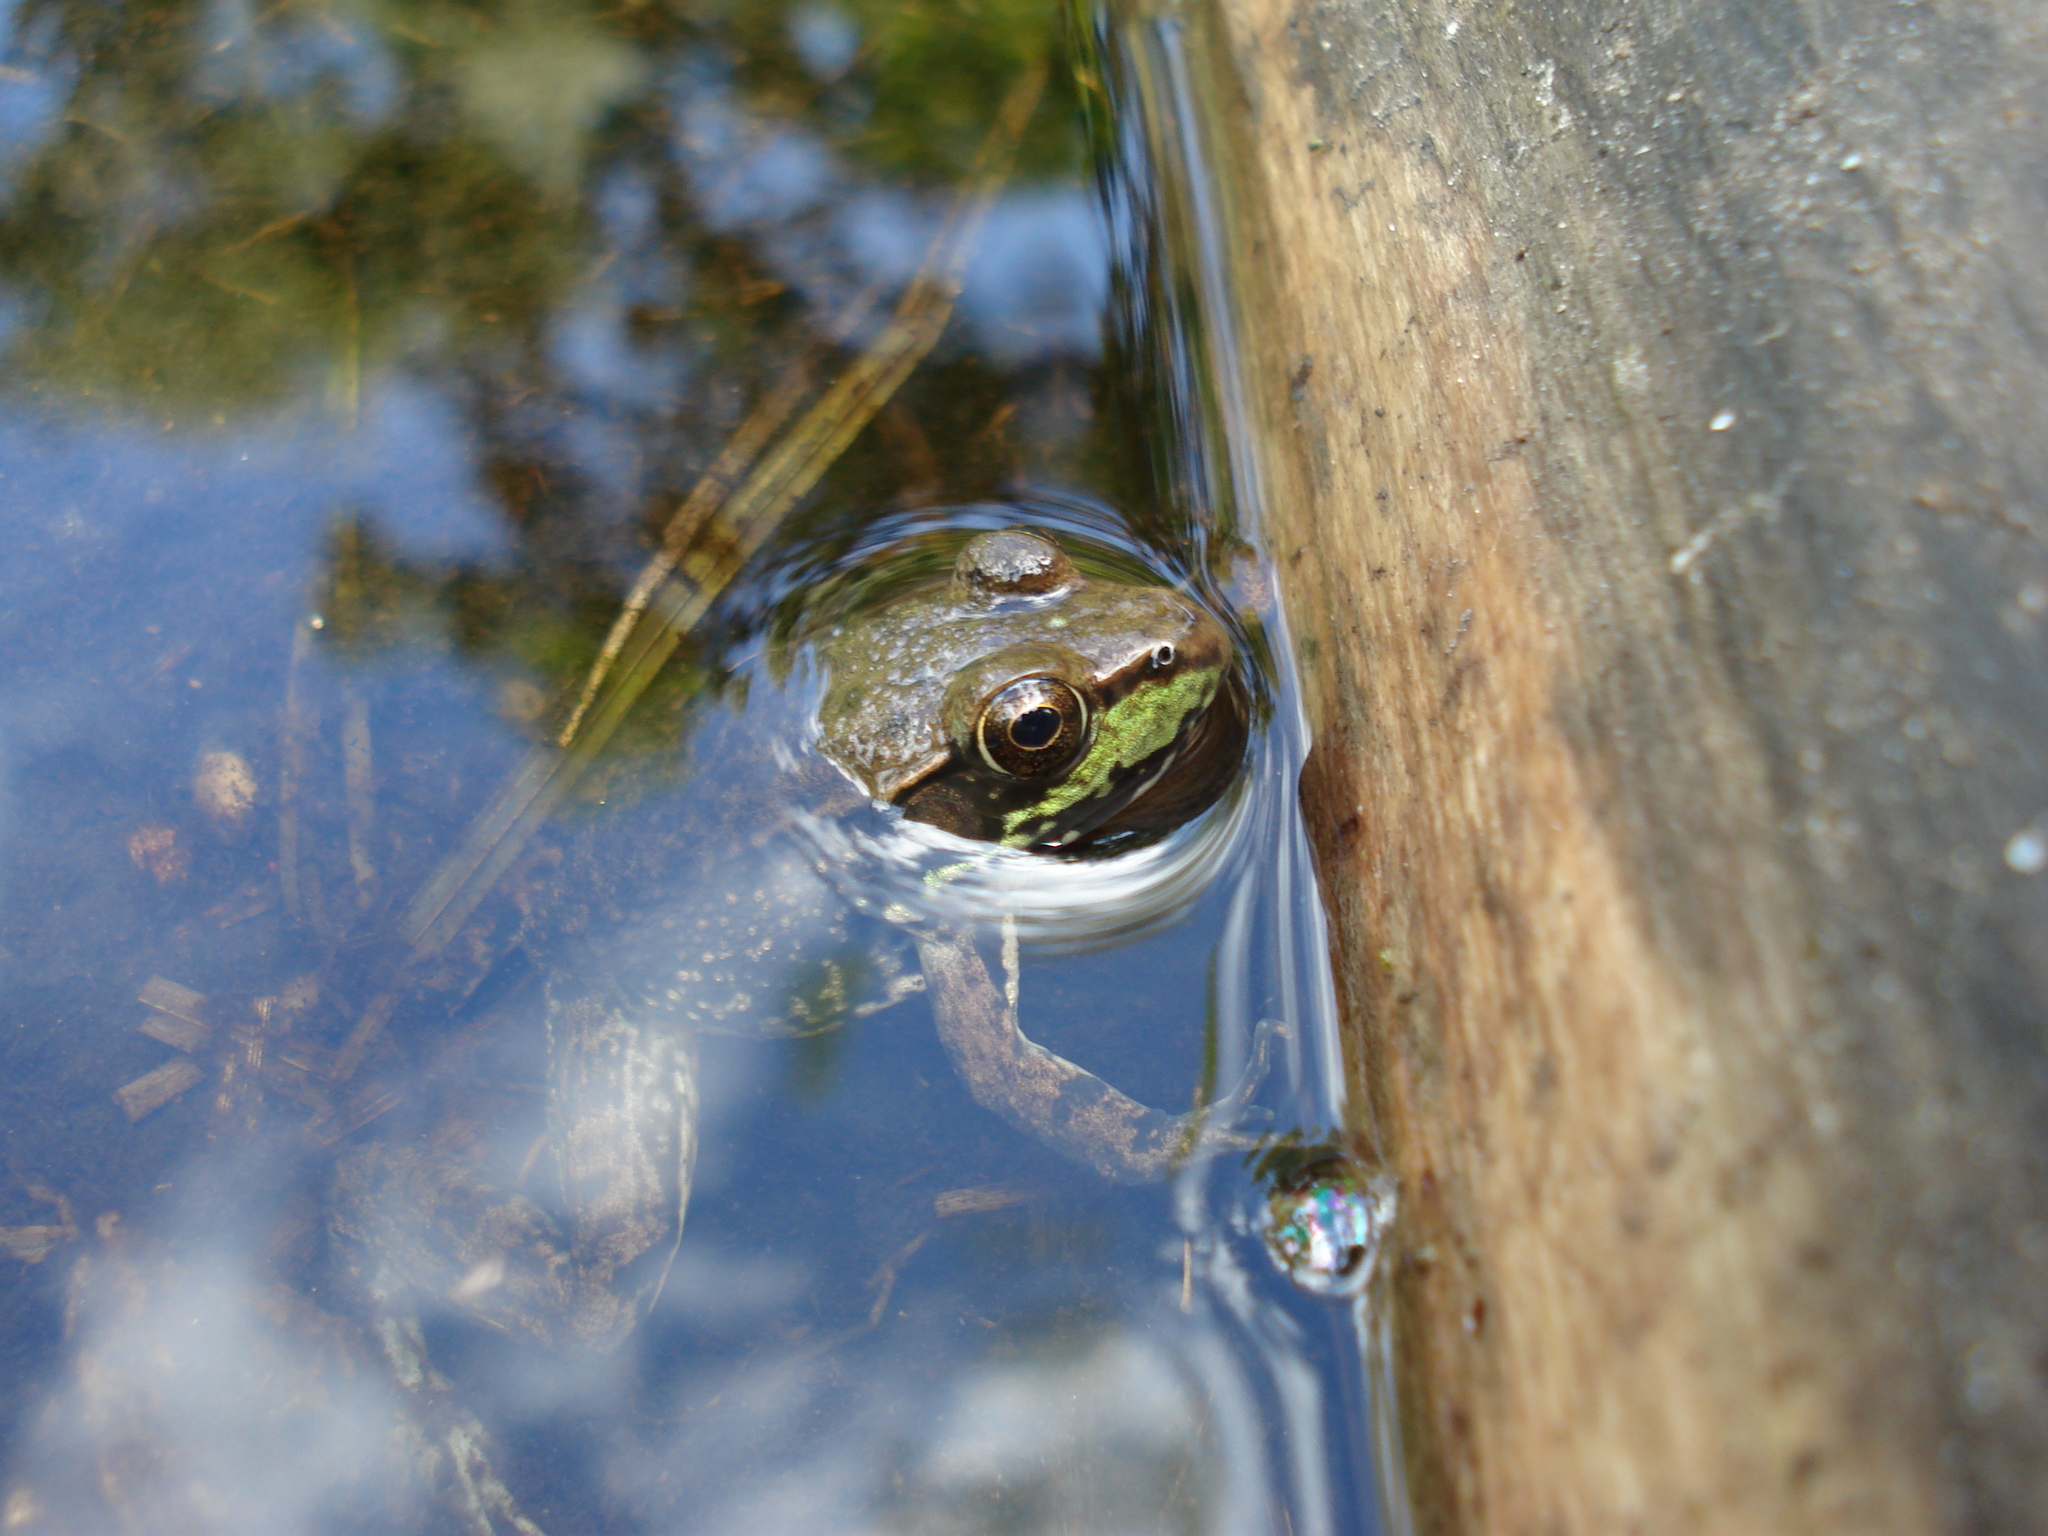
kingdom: Animalia
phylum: Chordata
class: Amphibia
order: Anura
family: Ranidae
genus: Lithobates
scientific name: Lithobates clamitans
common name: Green frog
